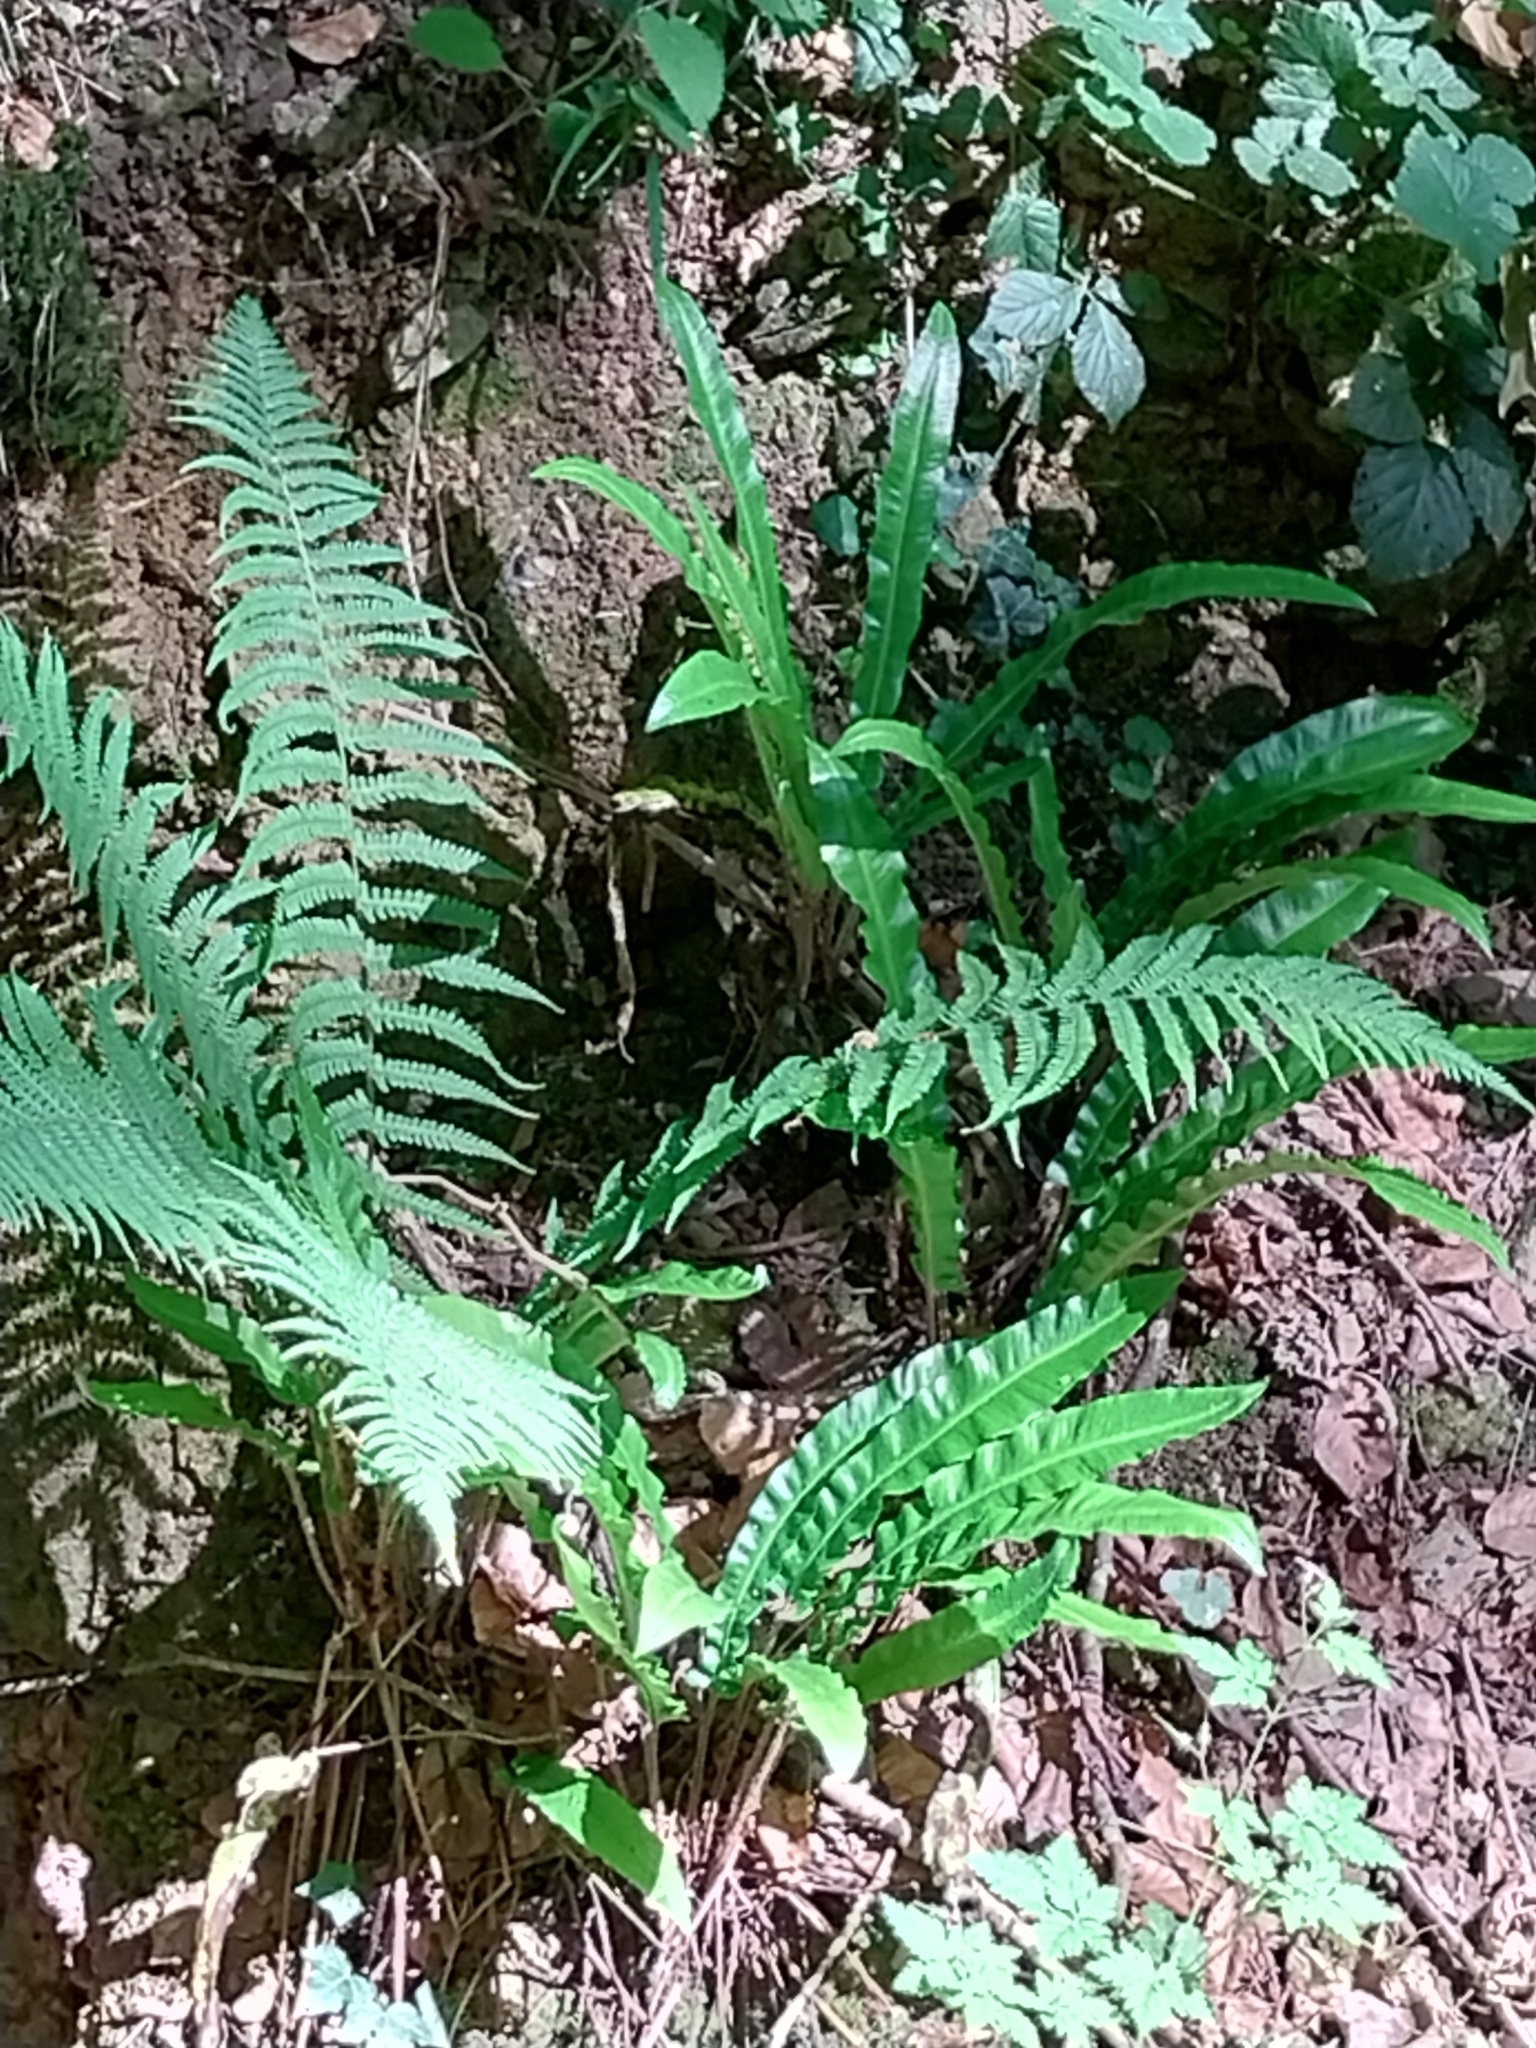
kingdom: Plantae
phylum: Tracheophyta
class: Polypodiopsida
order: Polypodiales
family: Aspleniaceae
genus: Asplenium
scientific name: Asplenium scolopendrium
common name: Hart's-tongue fern
